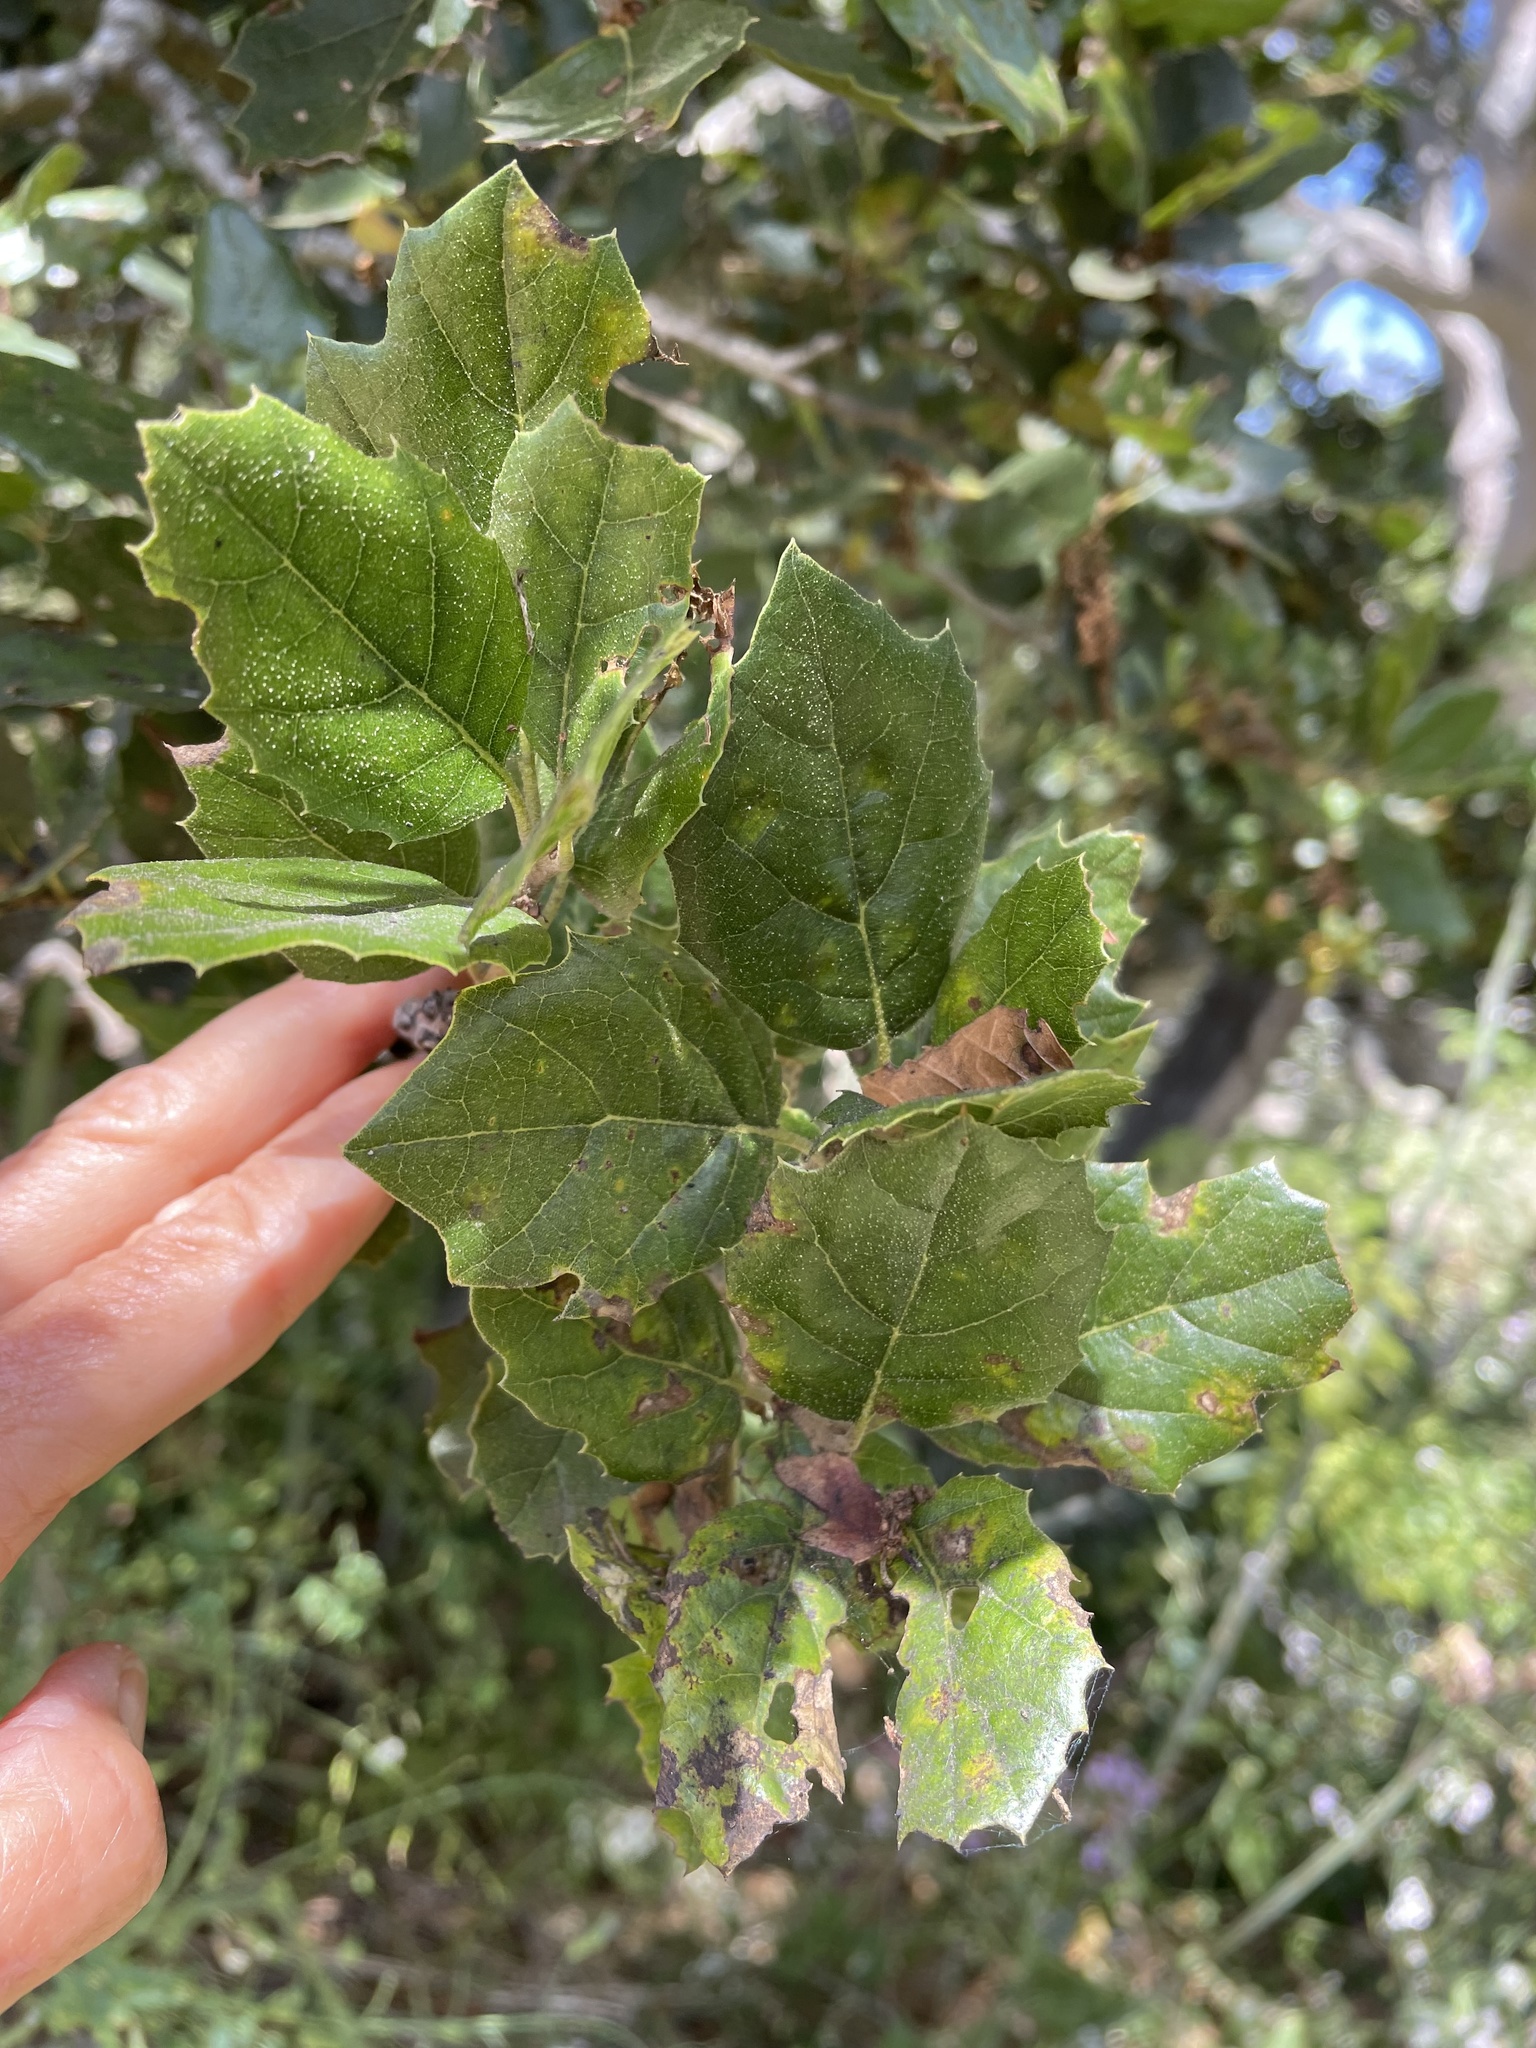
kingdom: Plantae
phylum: Tracheophyta
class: Magnoliopsida
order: Fagales
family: Fagaceae
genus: Quercus
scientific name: Quercus agrifolia
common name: California live oak
